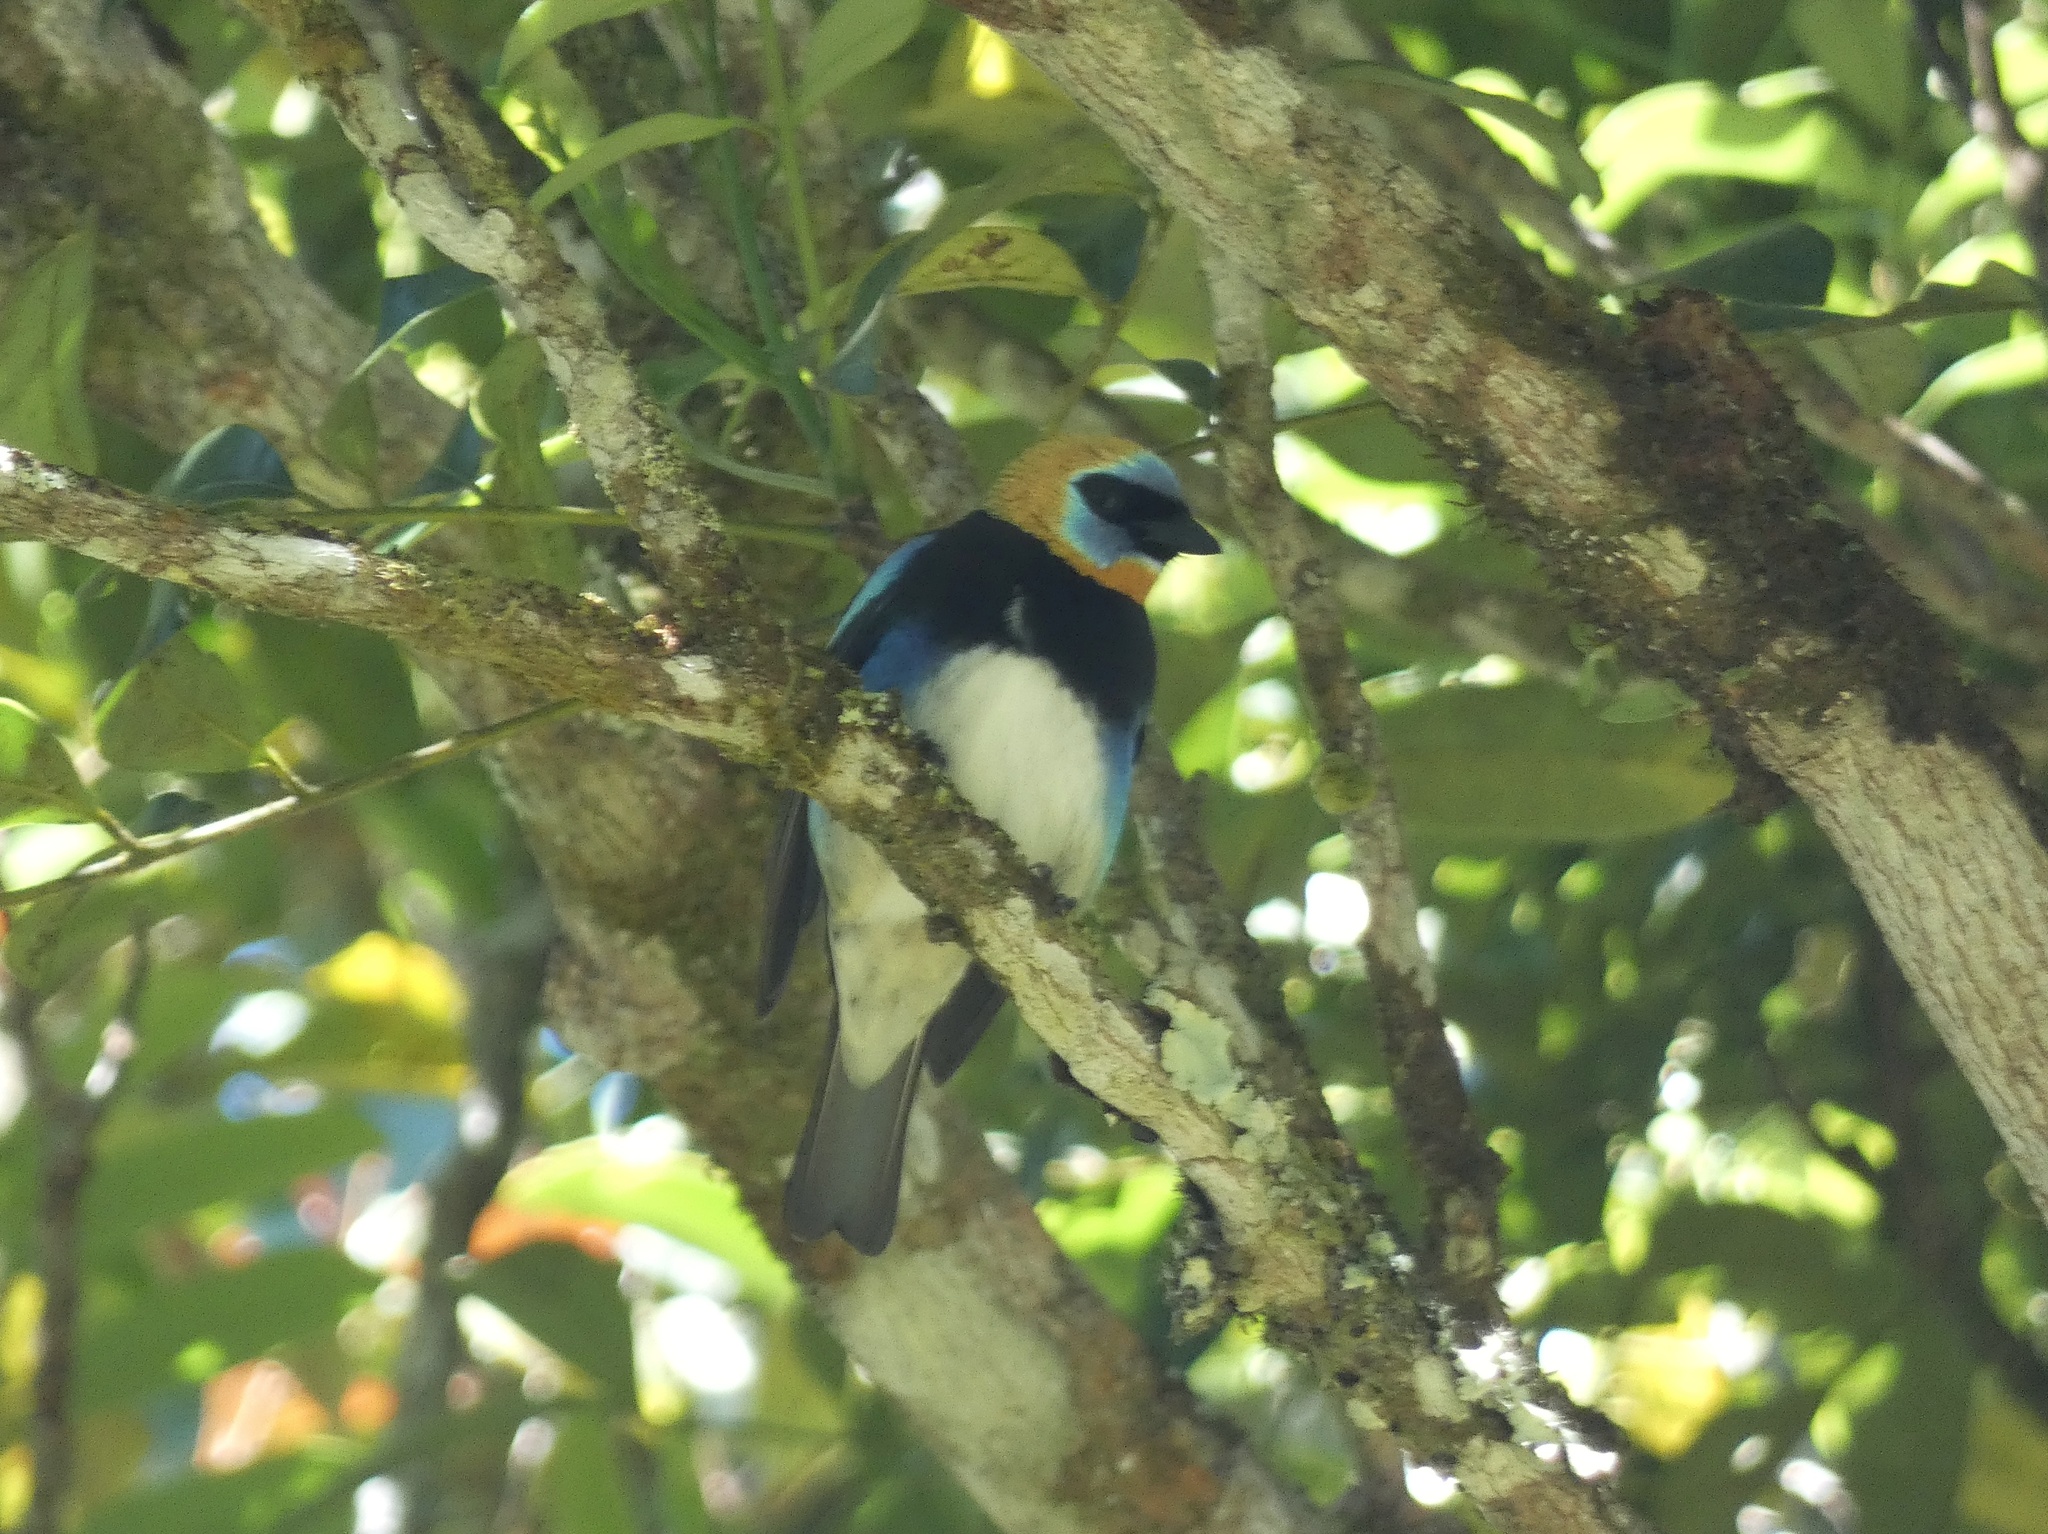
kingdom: Animalia
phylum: Chordata
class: Aves
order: Passeriformes
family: Thraupidae
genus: Stilpnia
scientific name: Stilpnia larvata
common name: Golden-hooded tanager
